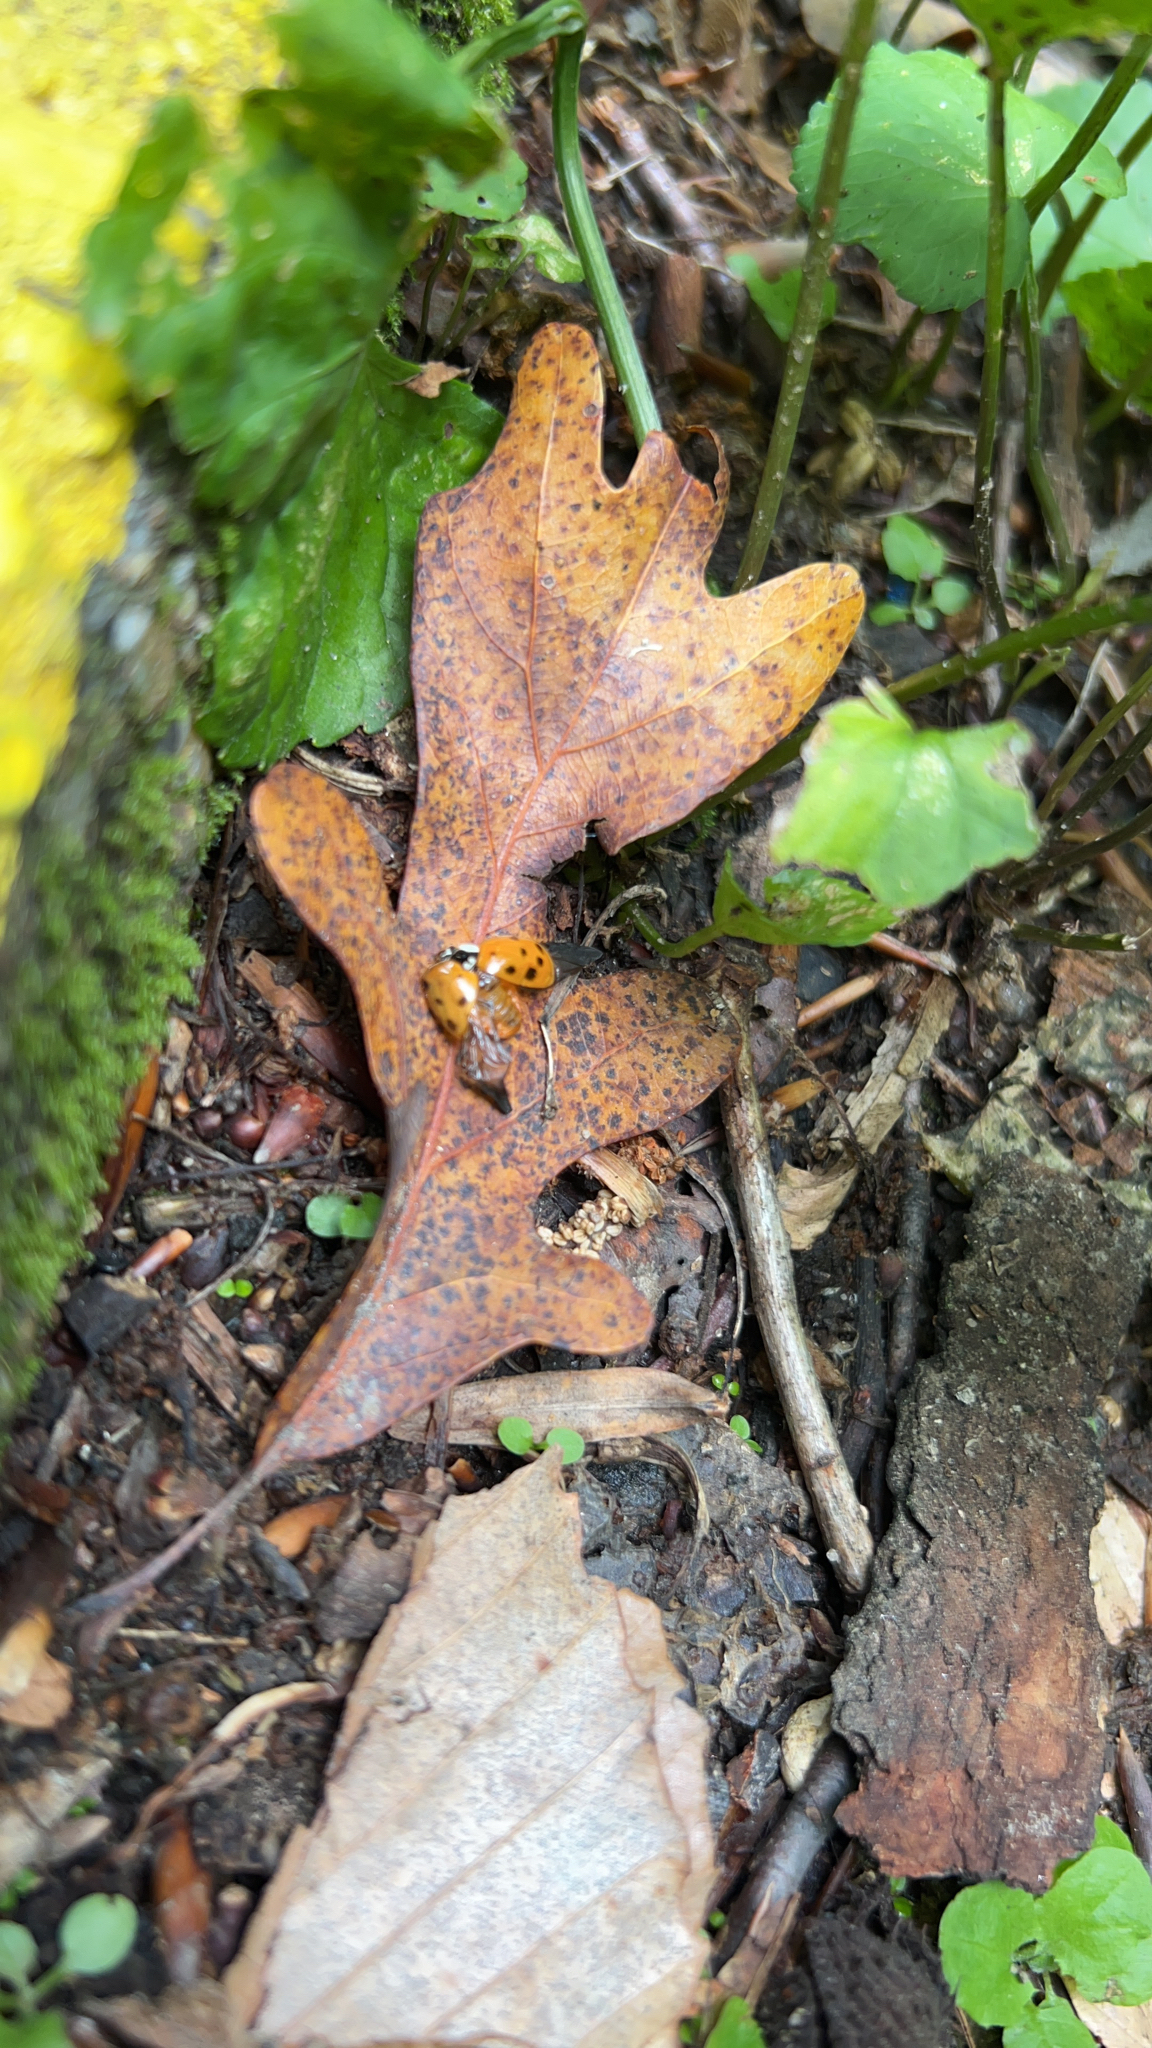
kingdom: Animalia
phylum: Arthropoda
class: Insecta
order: Coleoptera
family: Coccinellidae
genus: Harmonia
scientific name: Harmonia axyridis
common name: Harlequin ladybird
